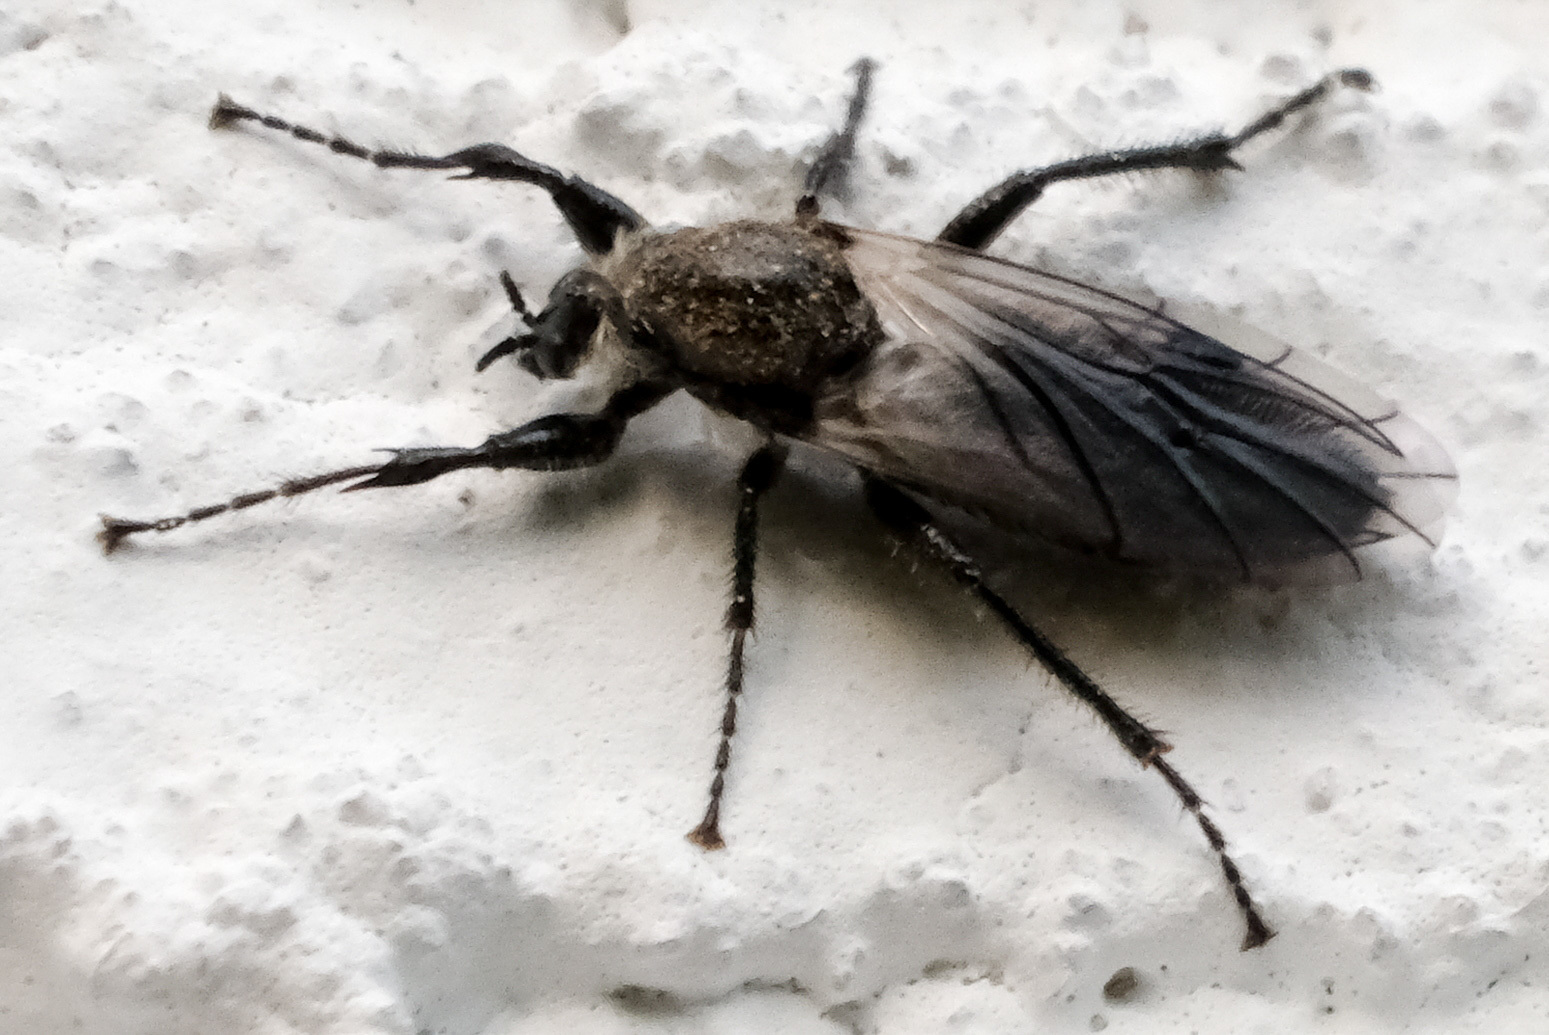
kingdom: Animalia
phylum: Arthropoda
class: Insecta
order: Diptera
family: Bibionidae
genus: Bibio
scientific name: Bibio albipennis
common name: White-winged march fly
